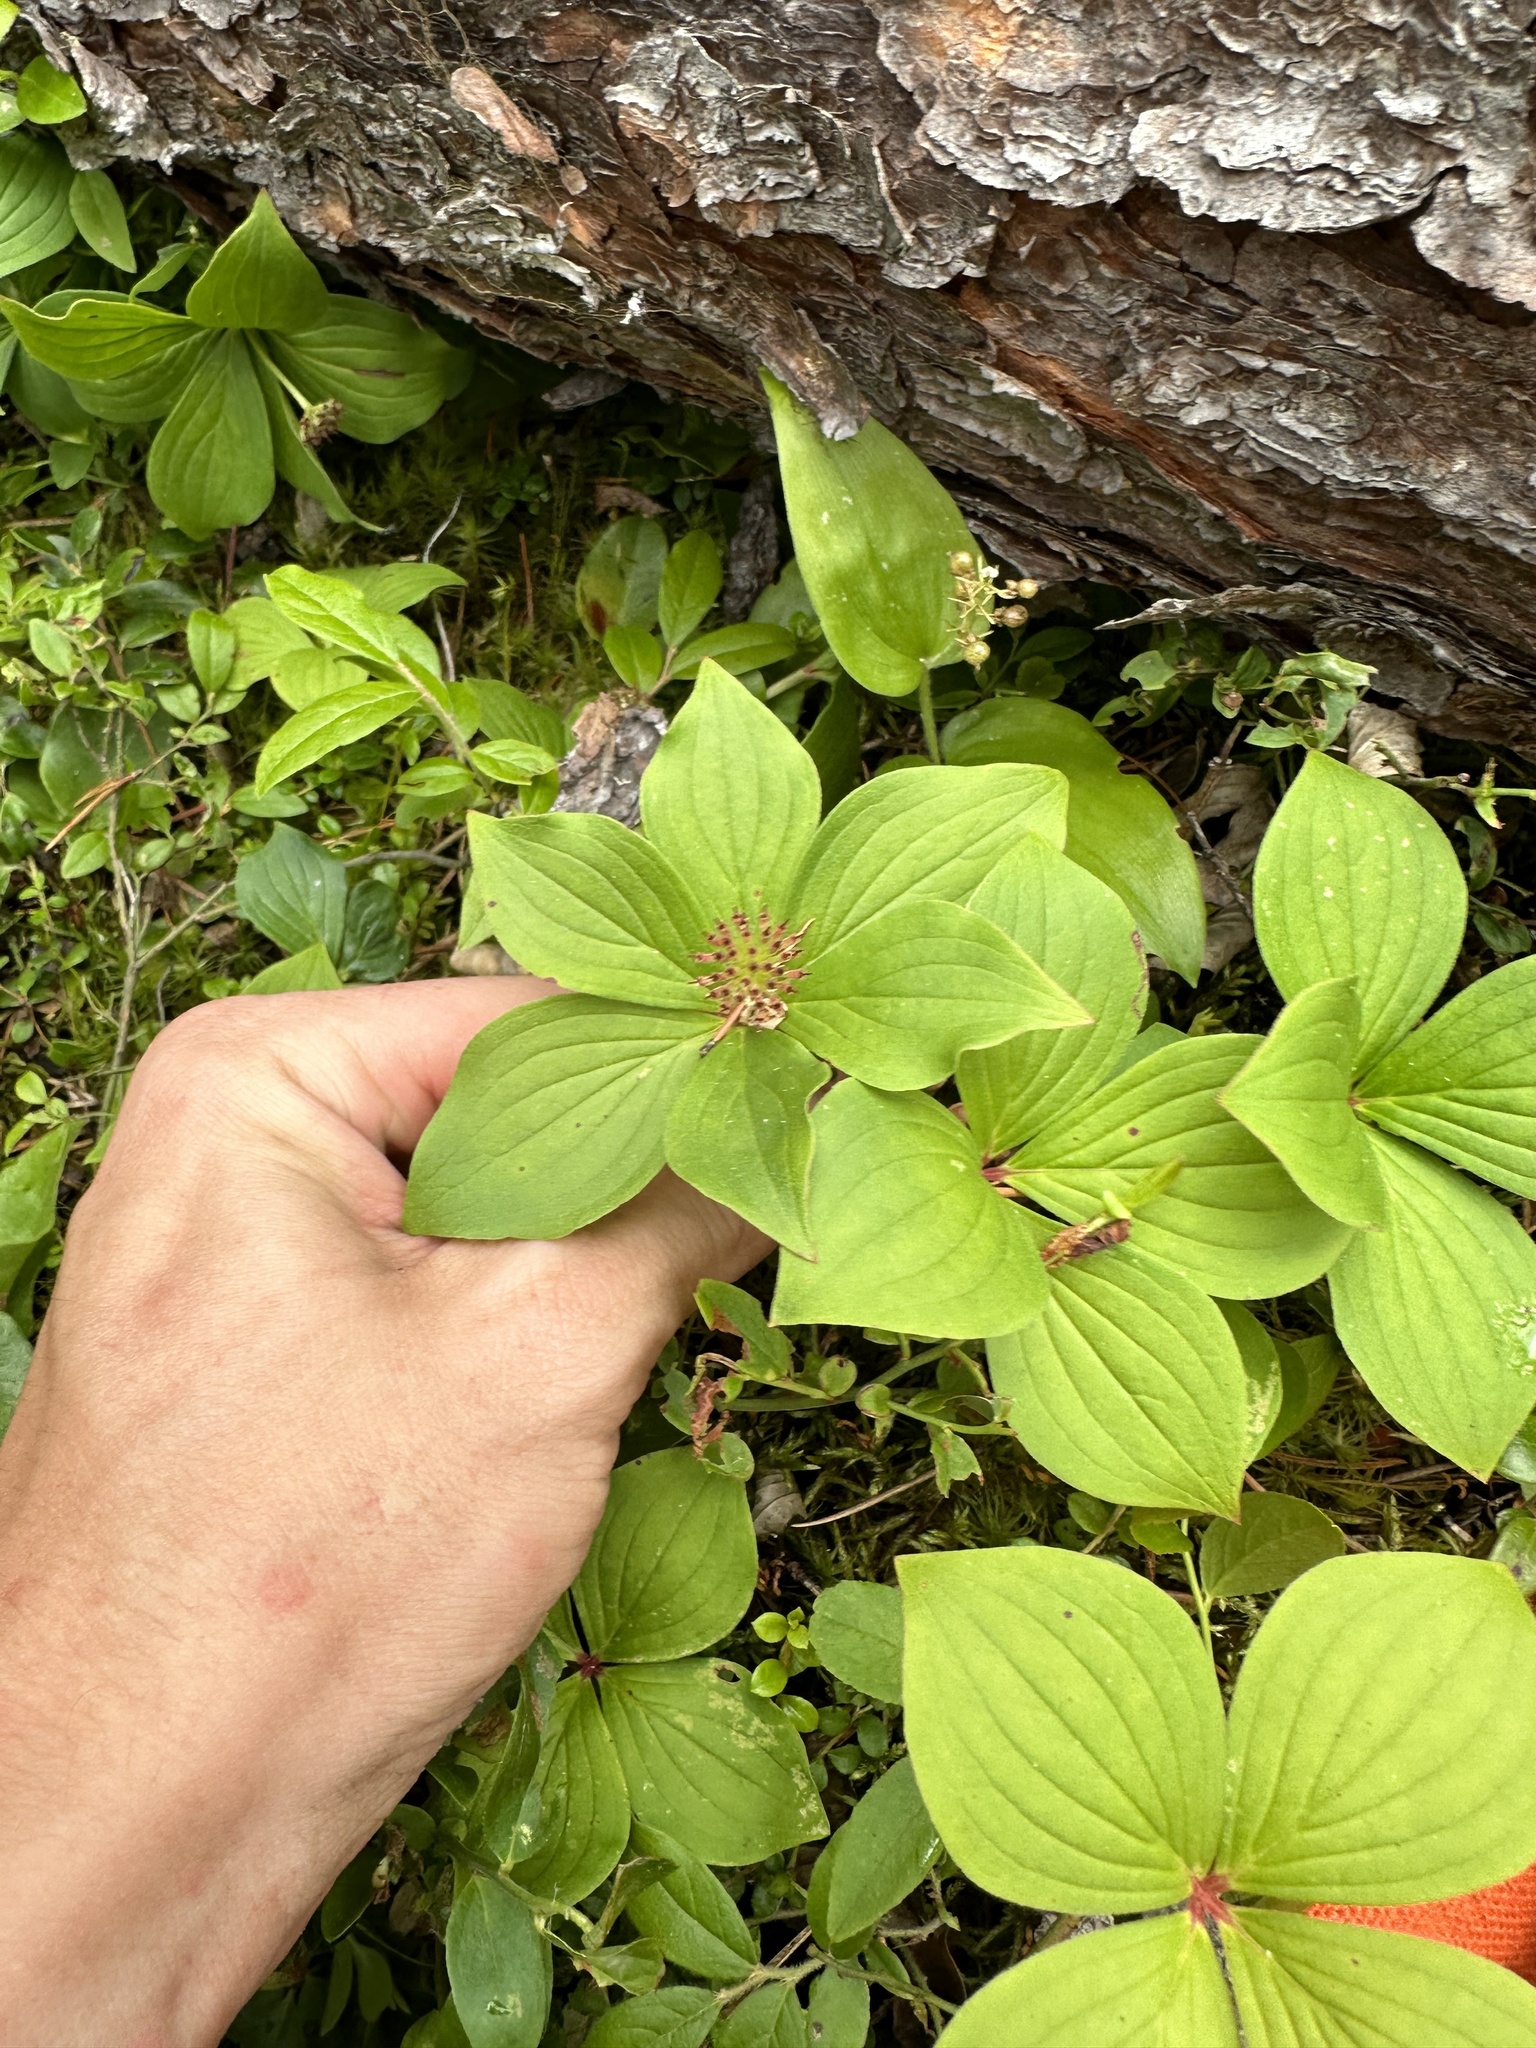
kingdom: Plantae
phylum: Tracheophyta
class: Magnoliopsida
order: Cornales
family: Cornaceae
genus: Cornus
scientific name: Cornus canadensis
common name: Creeping dogwood
